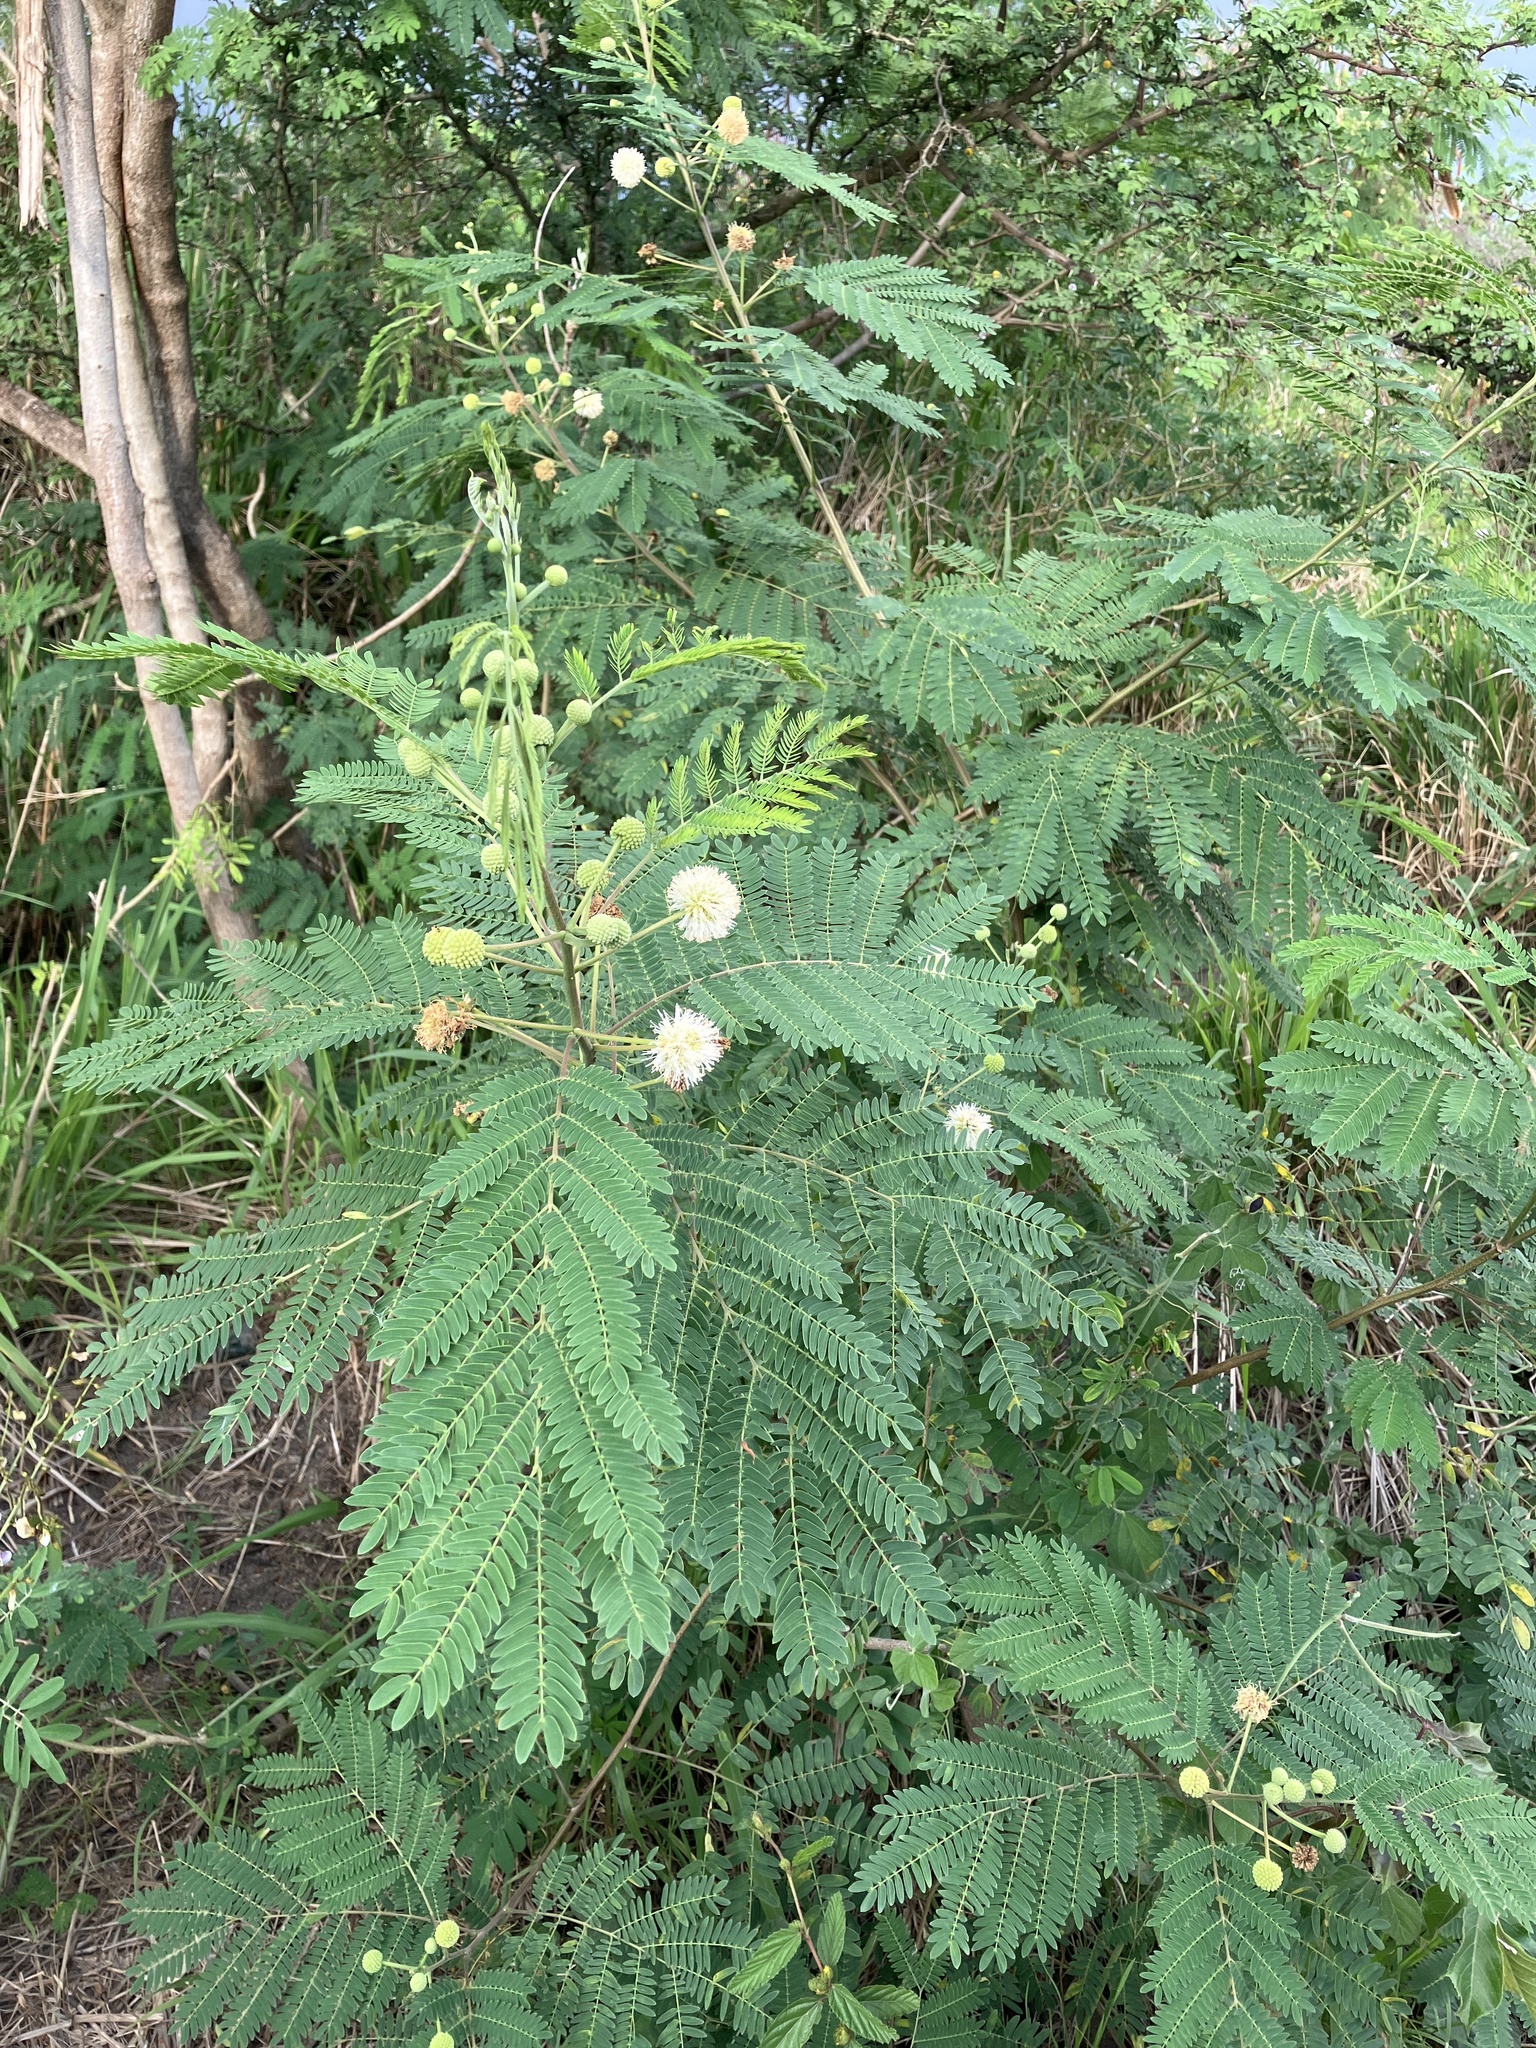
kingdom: Plantae
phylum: Tracheophyta
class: Magnoliopsida
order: Fabales
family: Fabaceae
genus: Leucaena
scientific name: Leucaena leucocephala
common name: White leadtree
